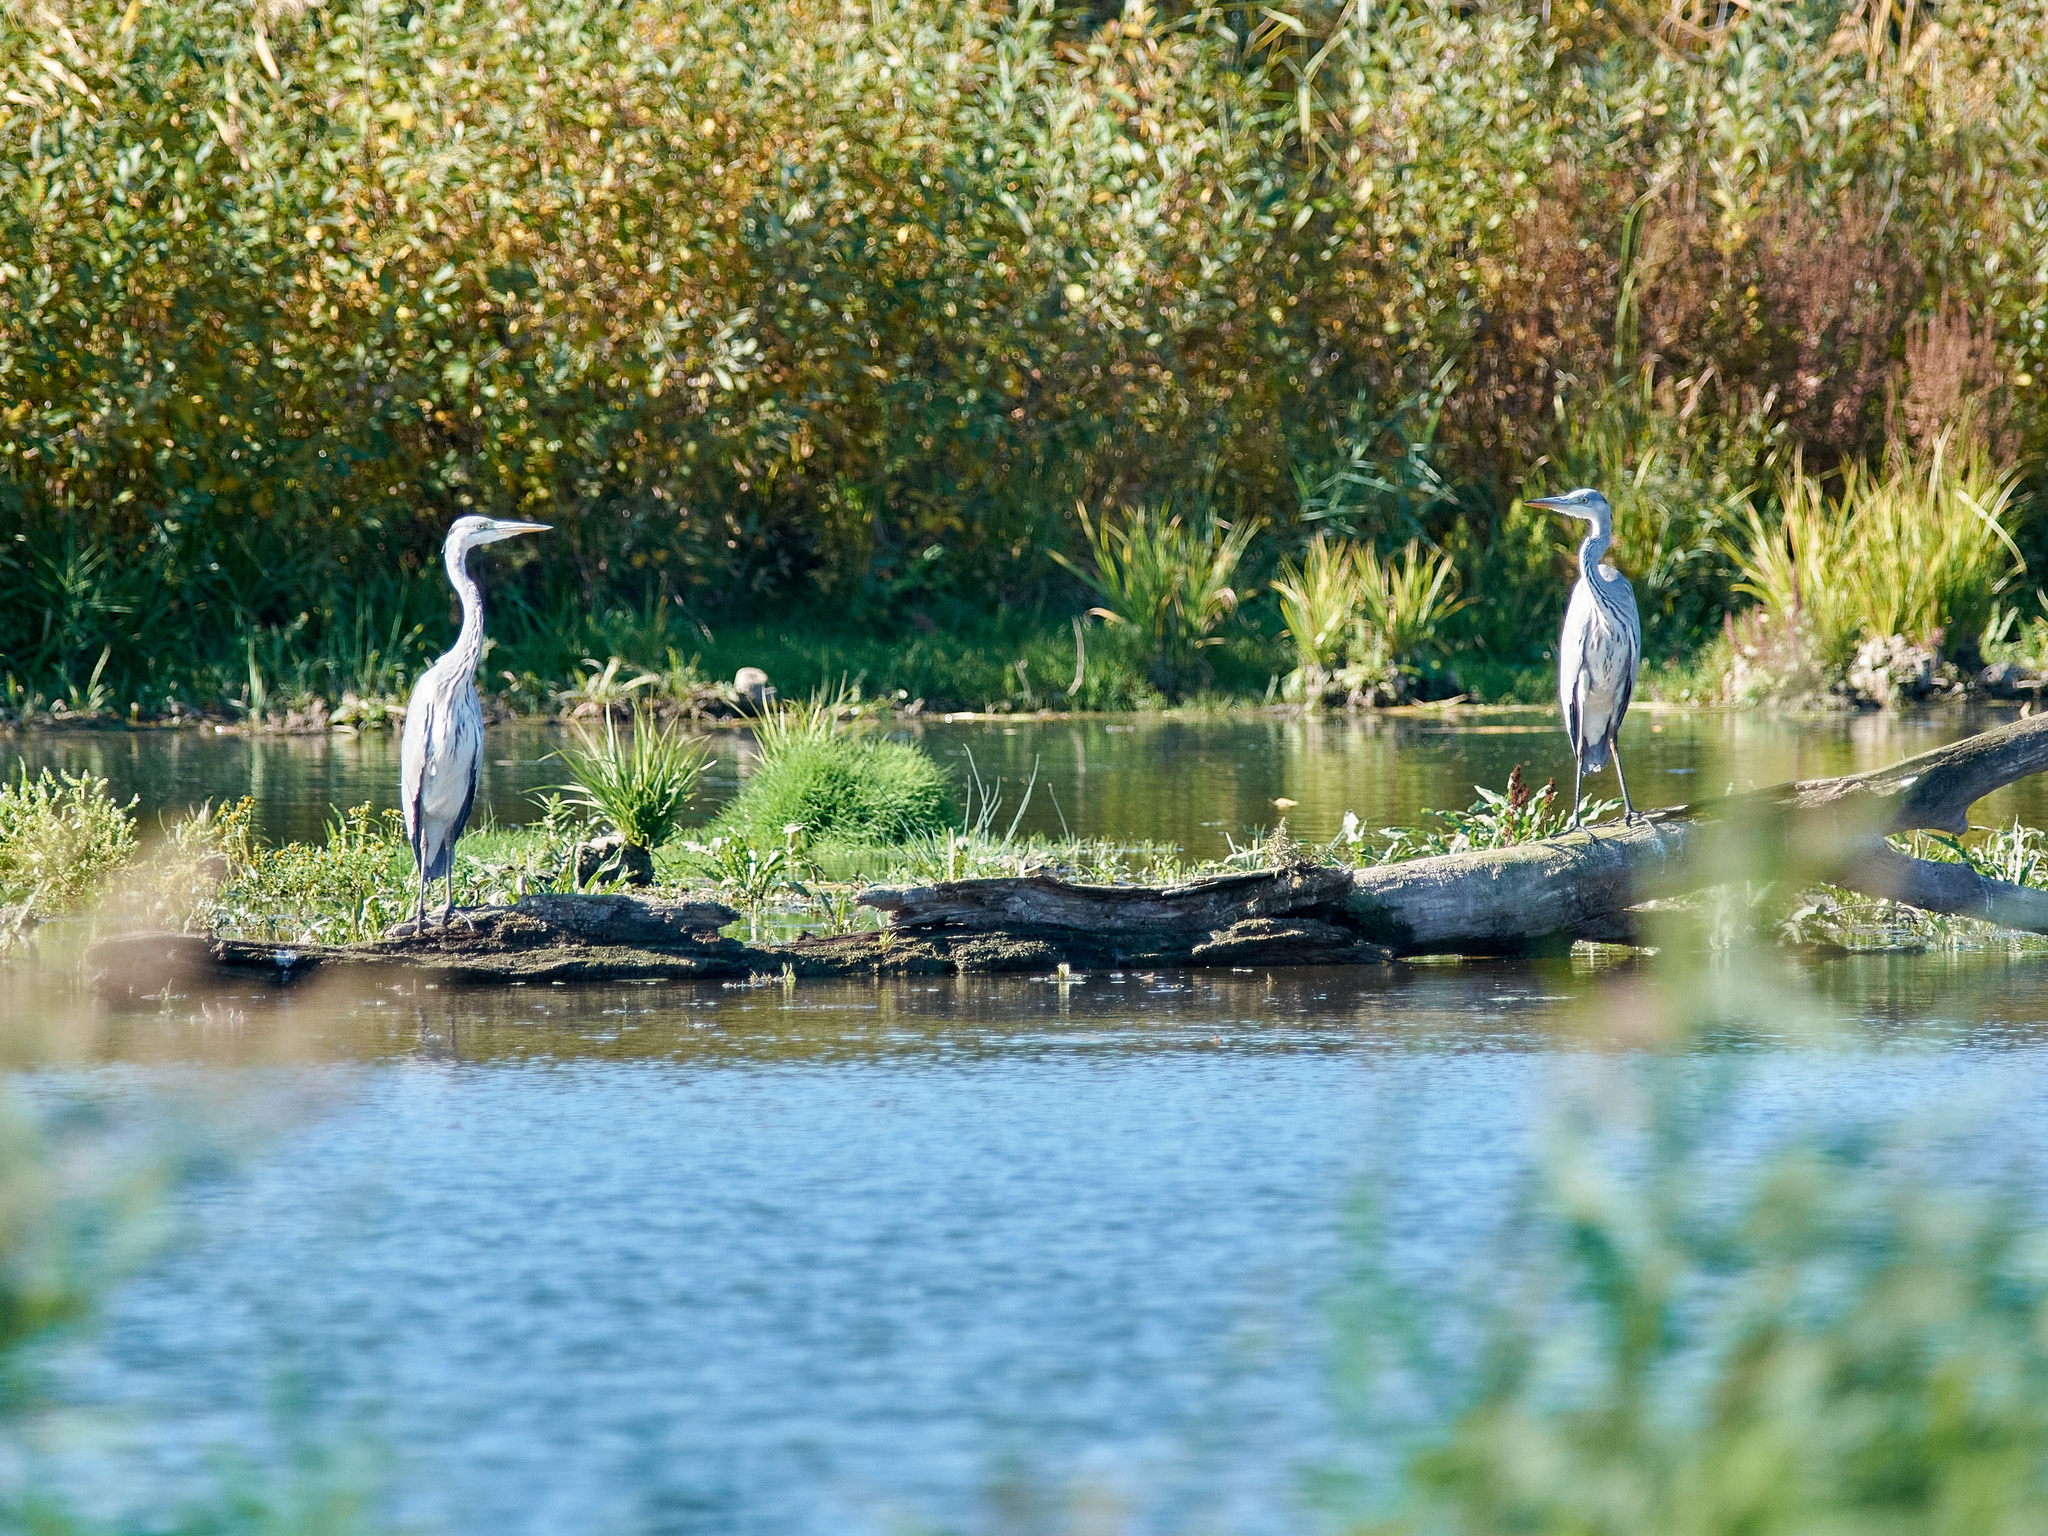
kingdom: Animalia
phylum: Chordata
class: Aves
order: Pelecaniformes
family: Ardeidae
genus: Ardea
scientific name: Ardea cinerea
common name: Grey heron
